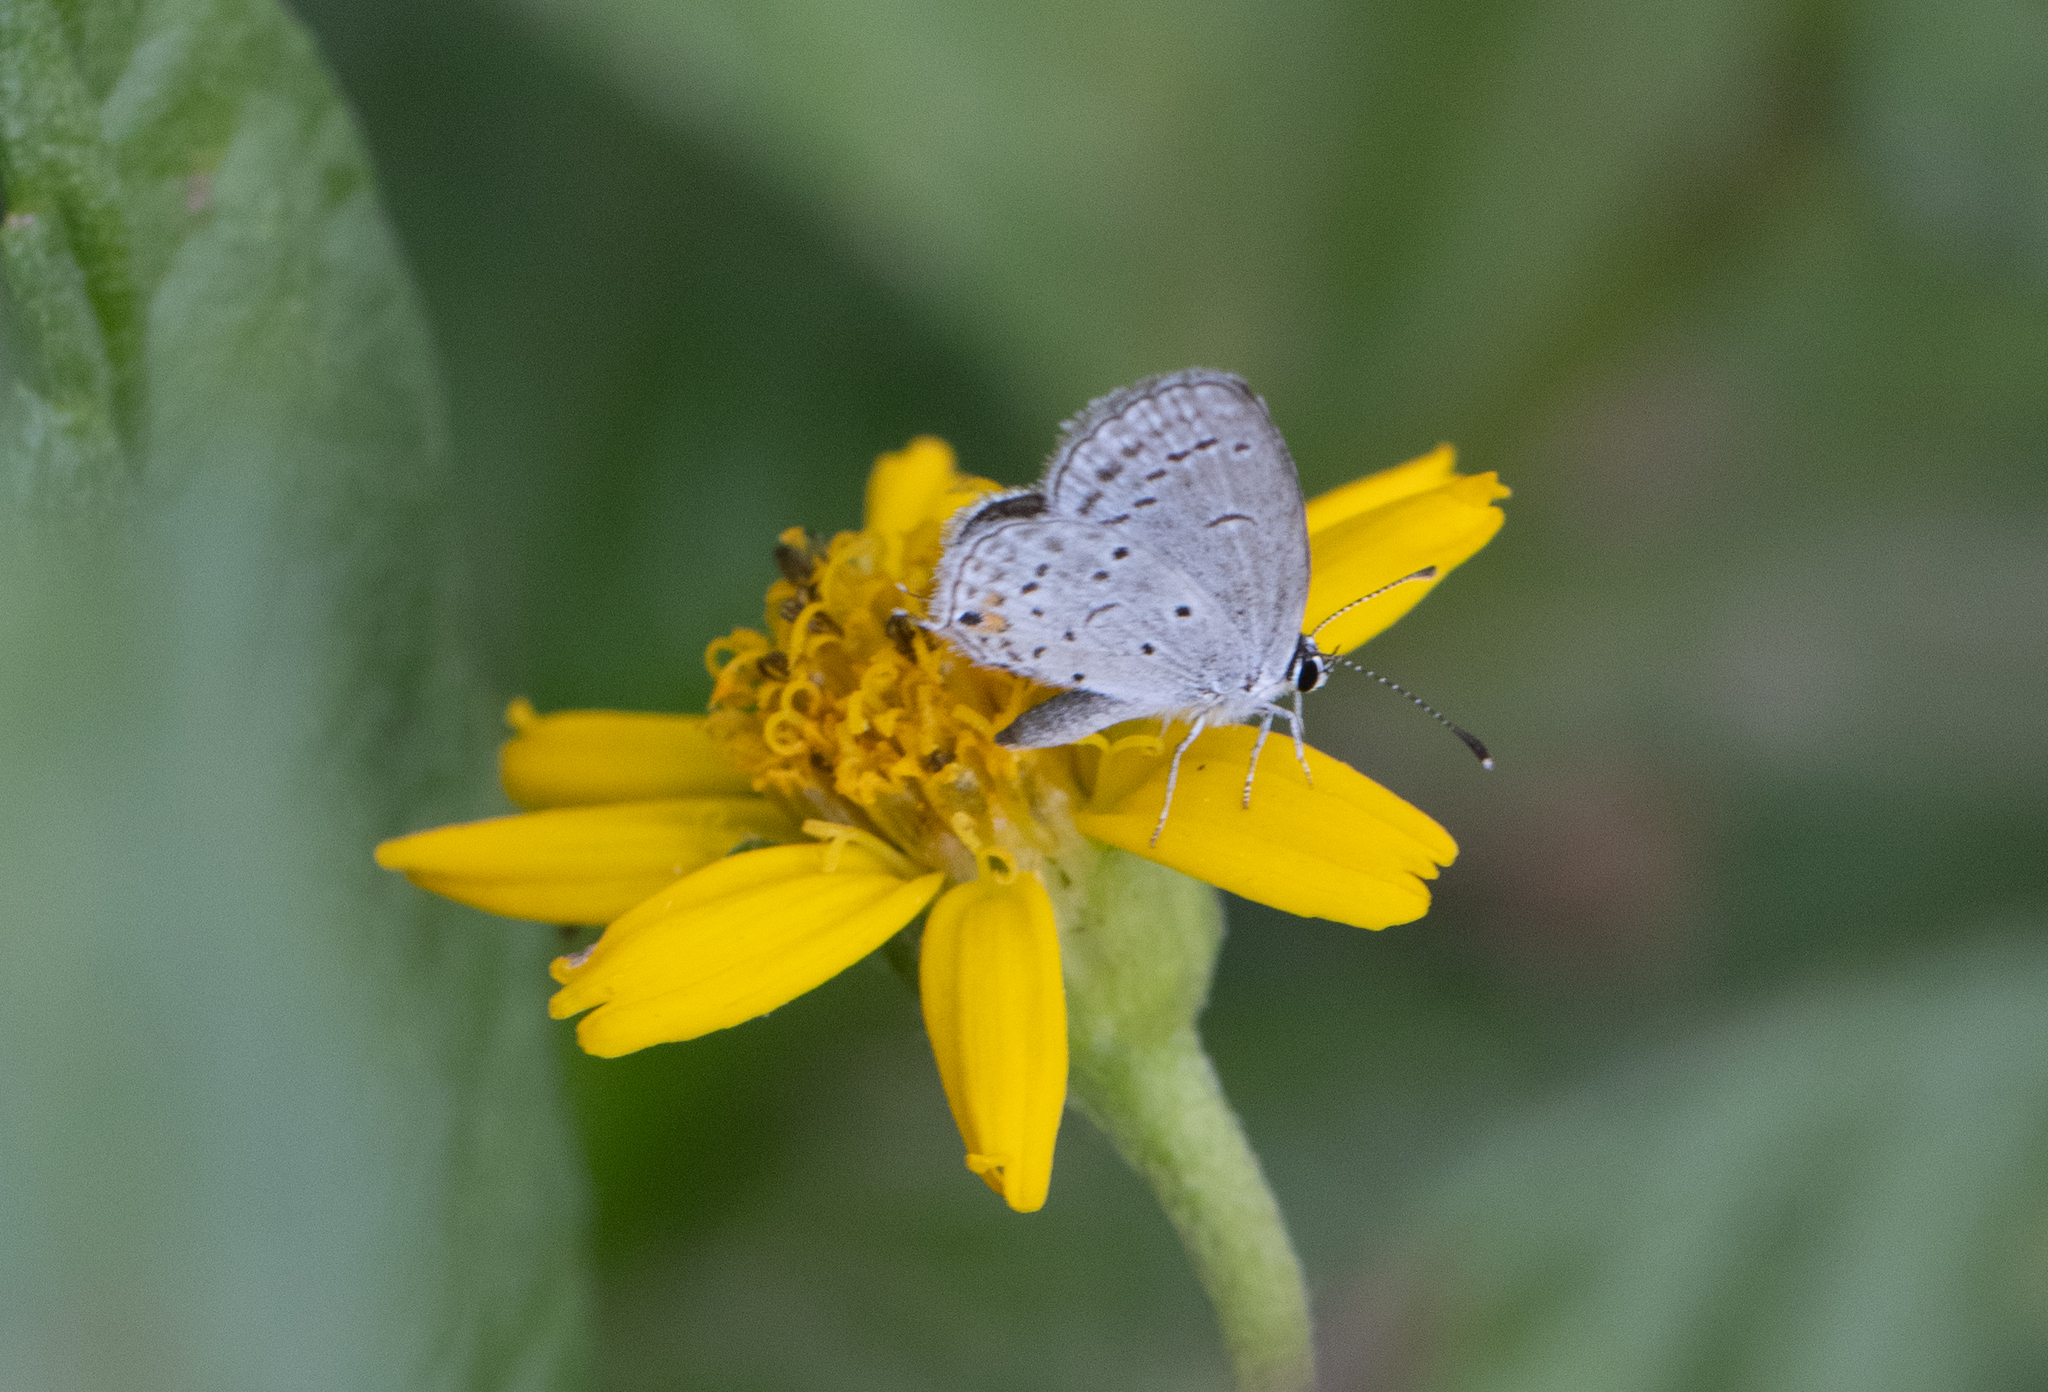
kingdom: Animalia
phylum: Arthropoda
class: Insecta
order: Lepidoptera
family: Lycaenidae
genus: Elkalyce
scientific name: Elkalyce comyntas
